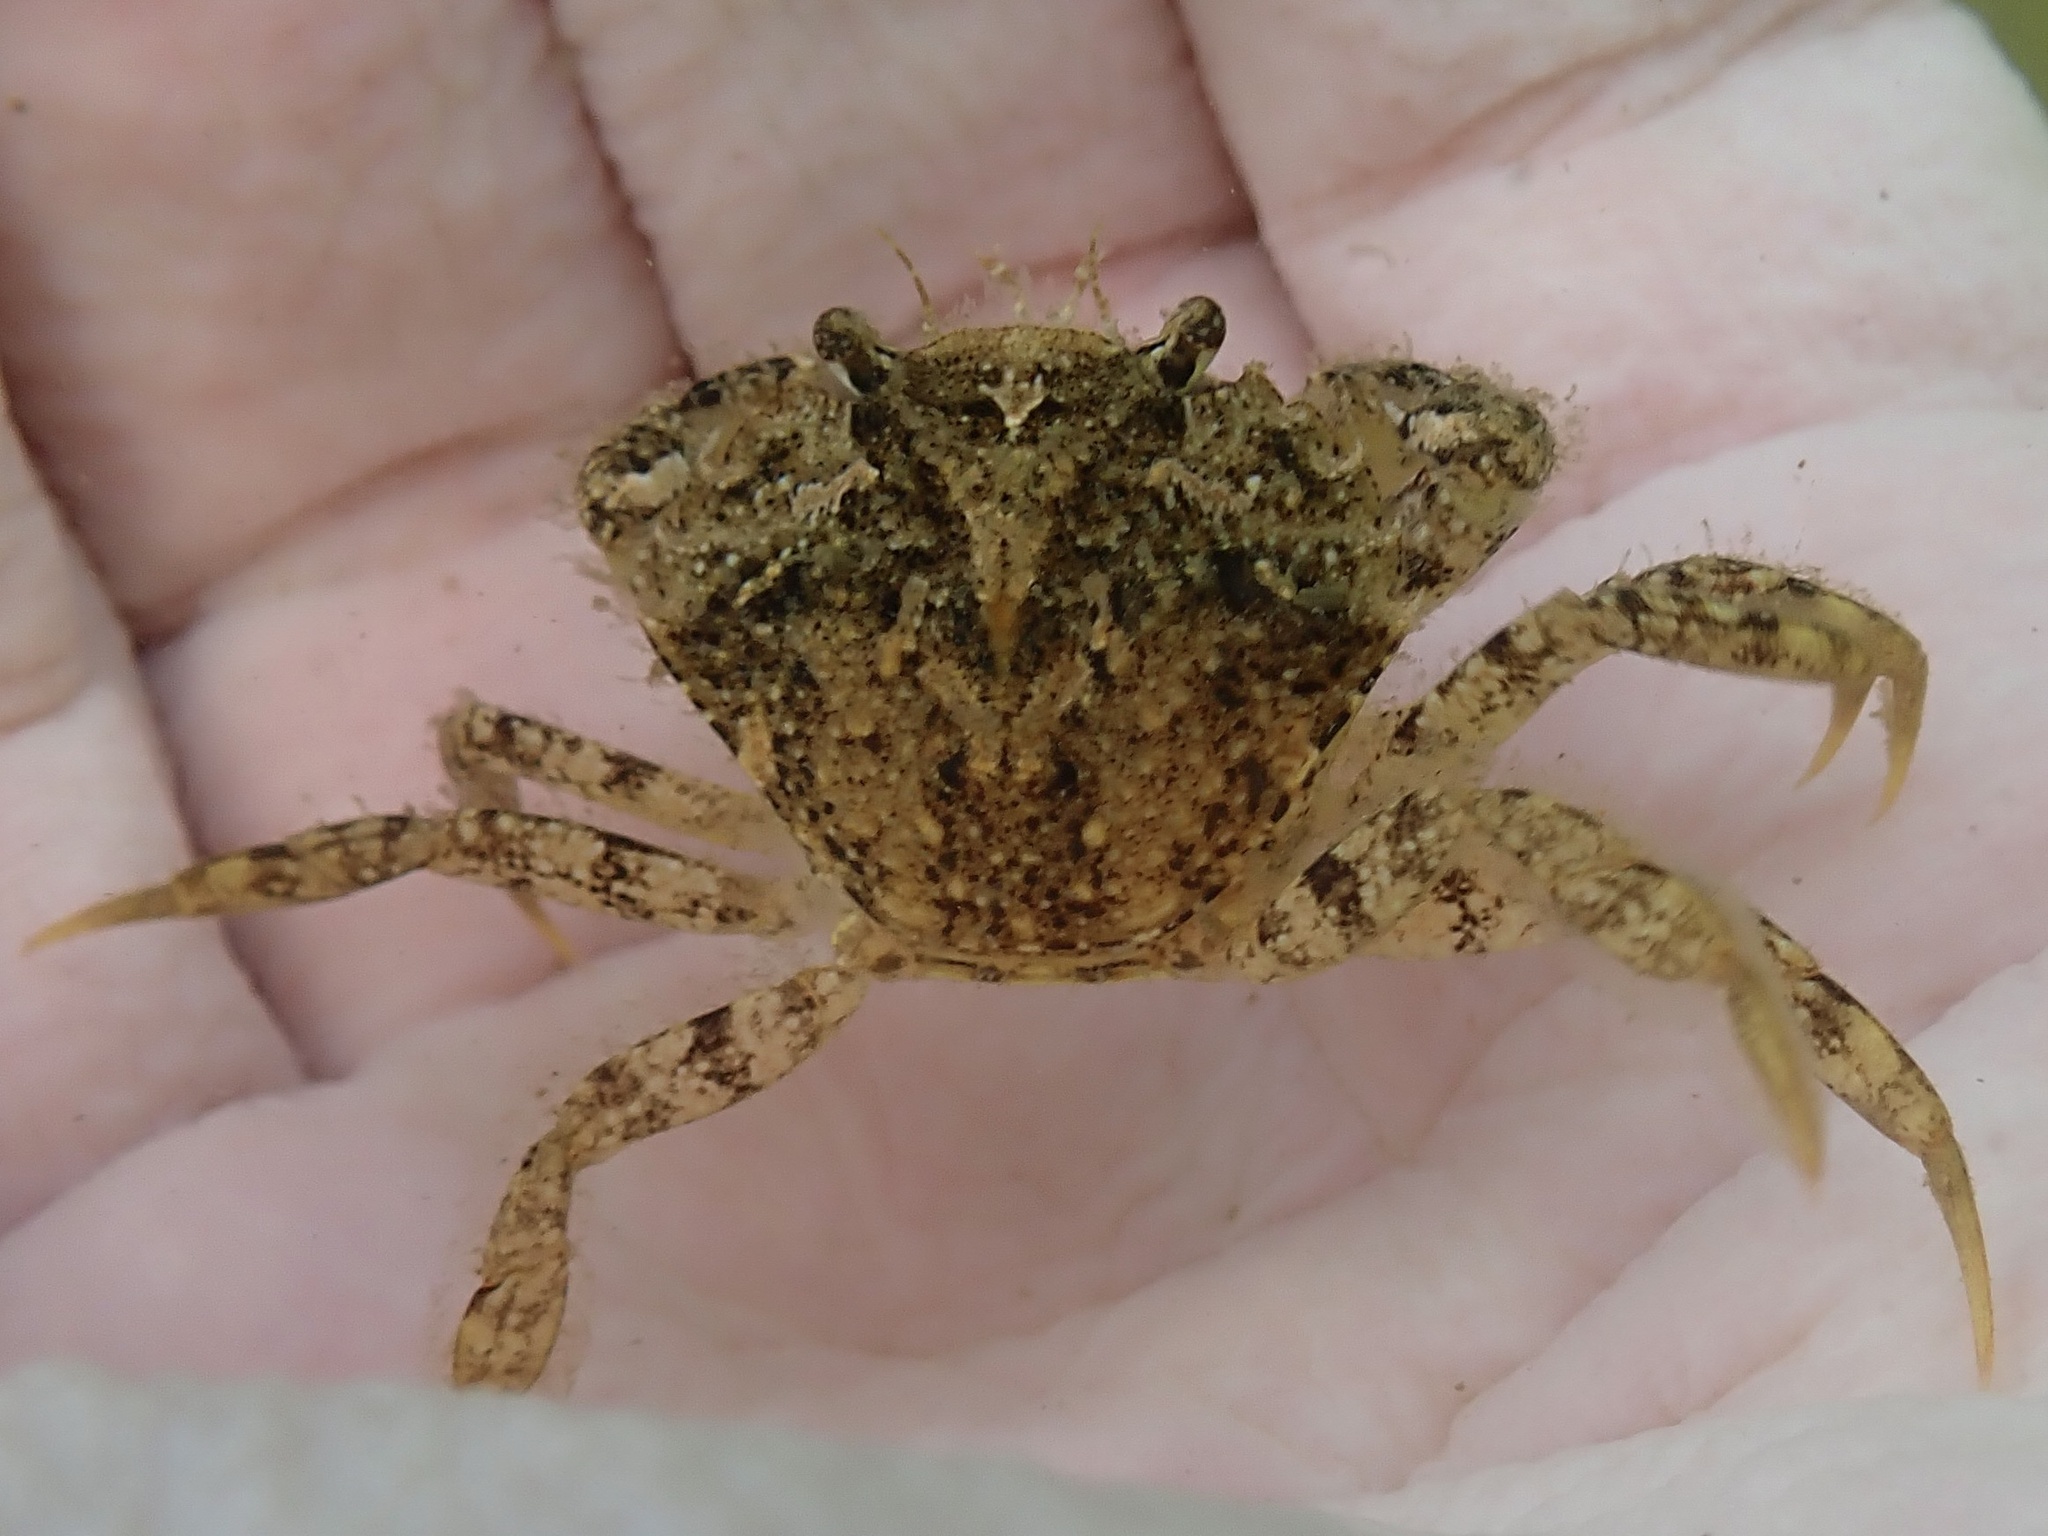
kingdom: Animalia
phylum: Arthropoda
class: Malacostraca
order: Decapoda
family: Carcinidae
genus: Carcinus
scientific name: Carcinus maenas
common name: European green crab
